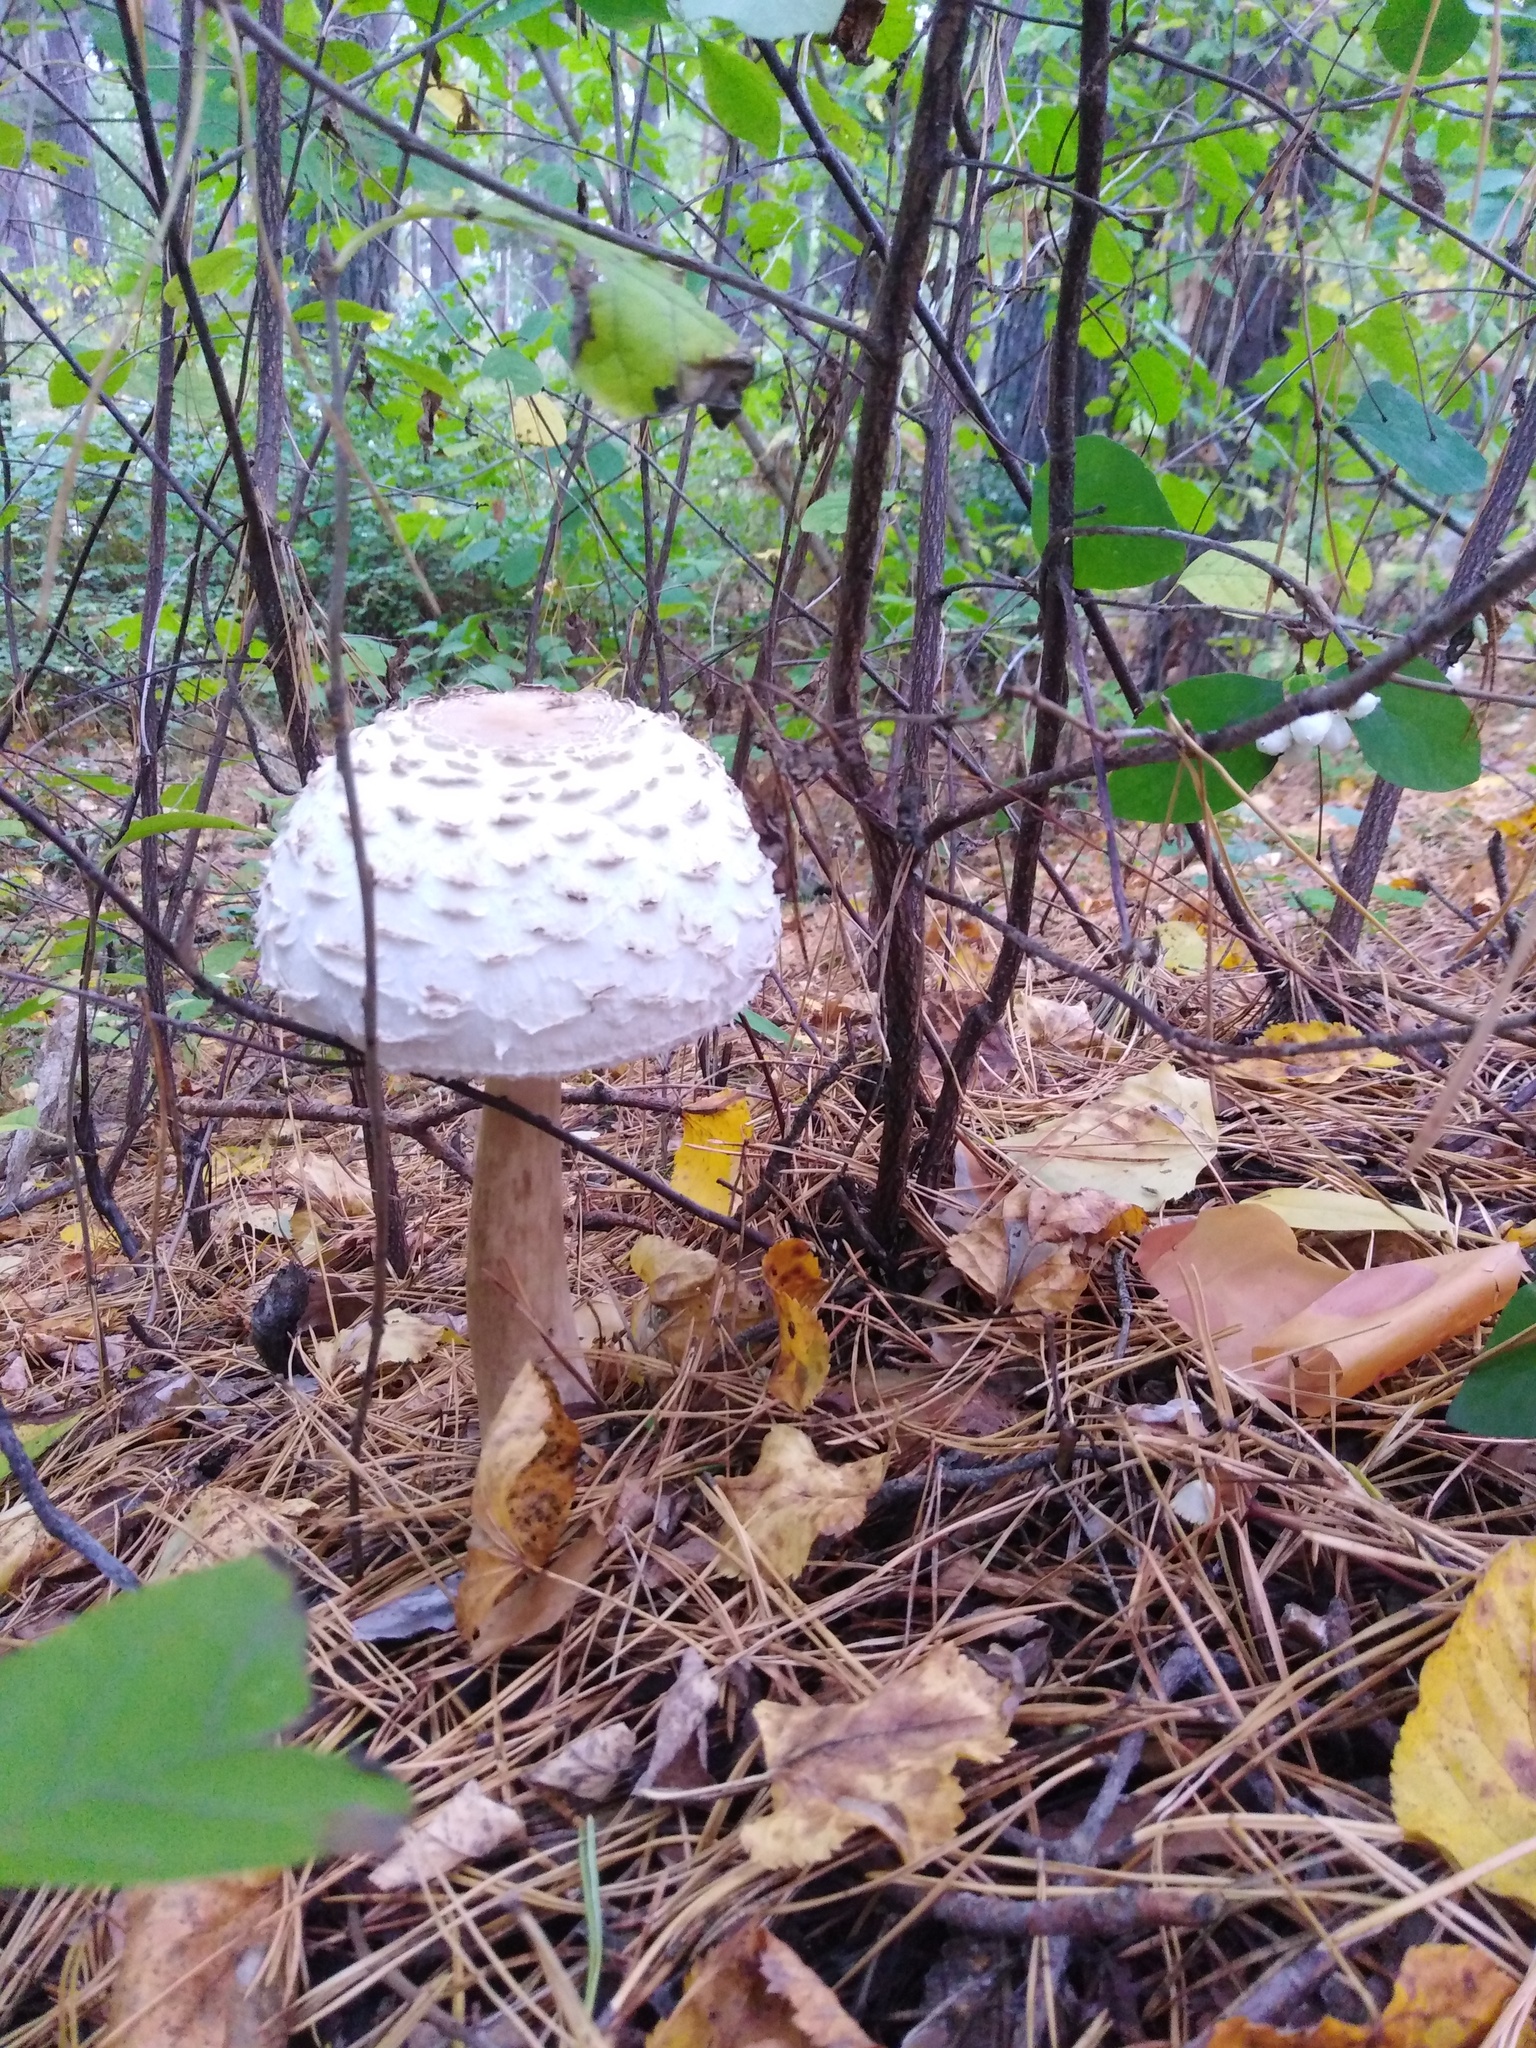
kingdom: Fungi
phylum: Basidiomycota
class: Agaricomycetes
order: Agaricales
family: Agaricaceae
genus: Macrolepiota
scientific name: Macrolepiota procera
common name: Parasol
